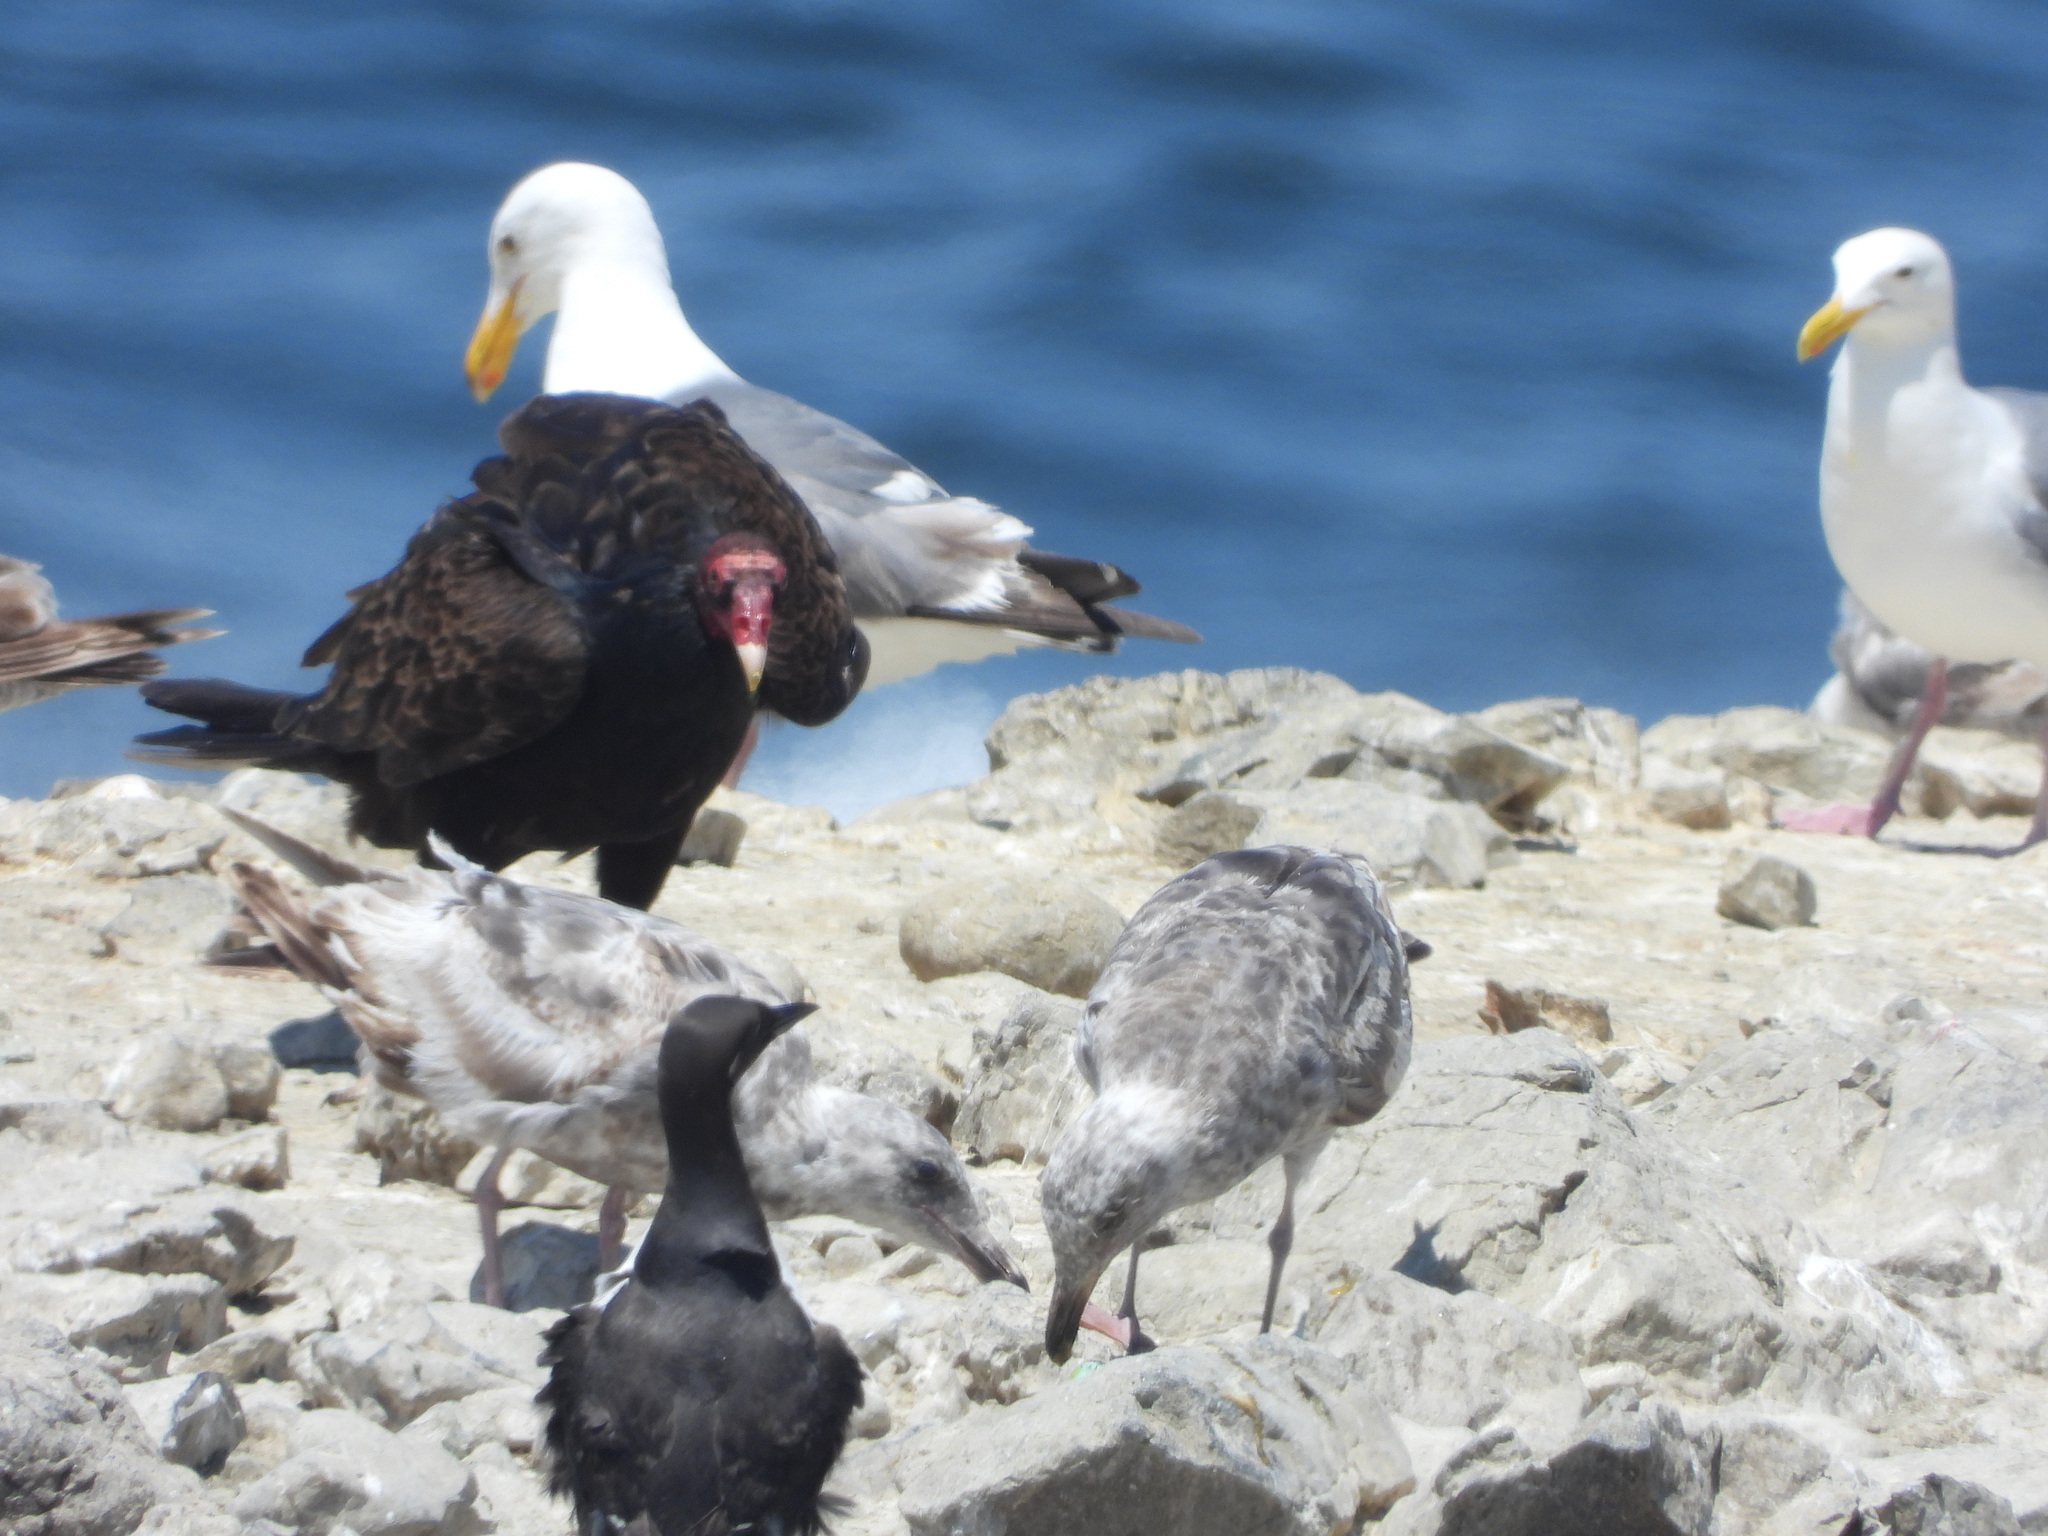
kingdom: Animalia
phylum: Chordata
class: Aves
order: Charadriiformes
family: Alcidae
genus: Uria
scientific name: Uria aalge
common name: Common murre
